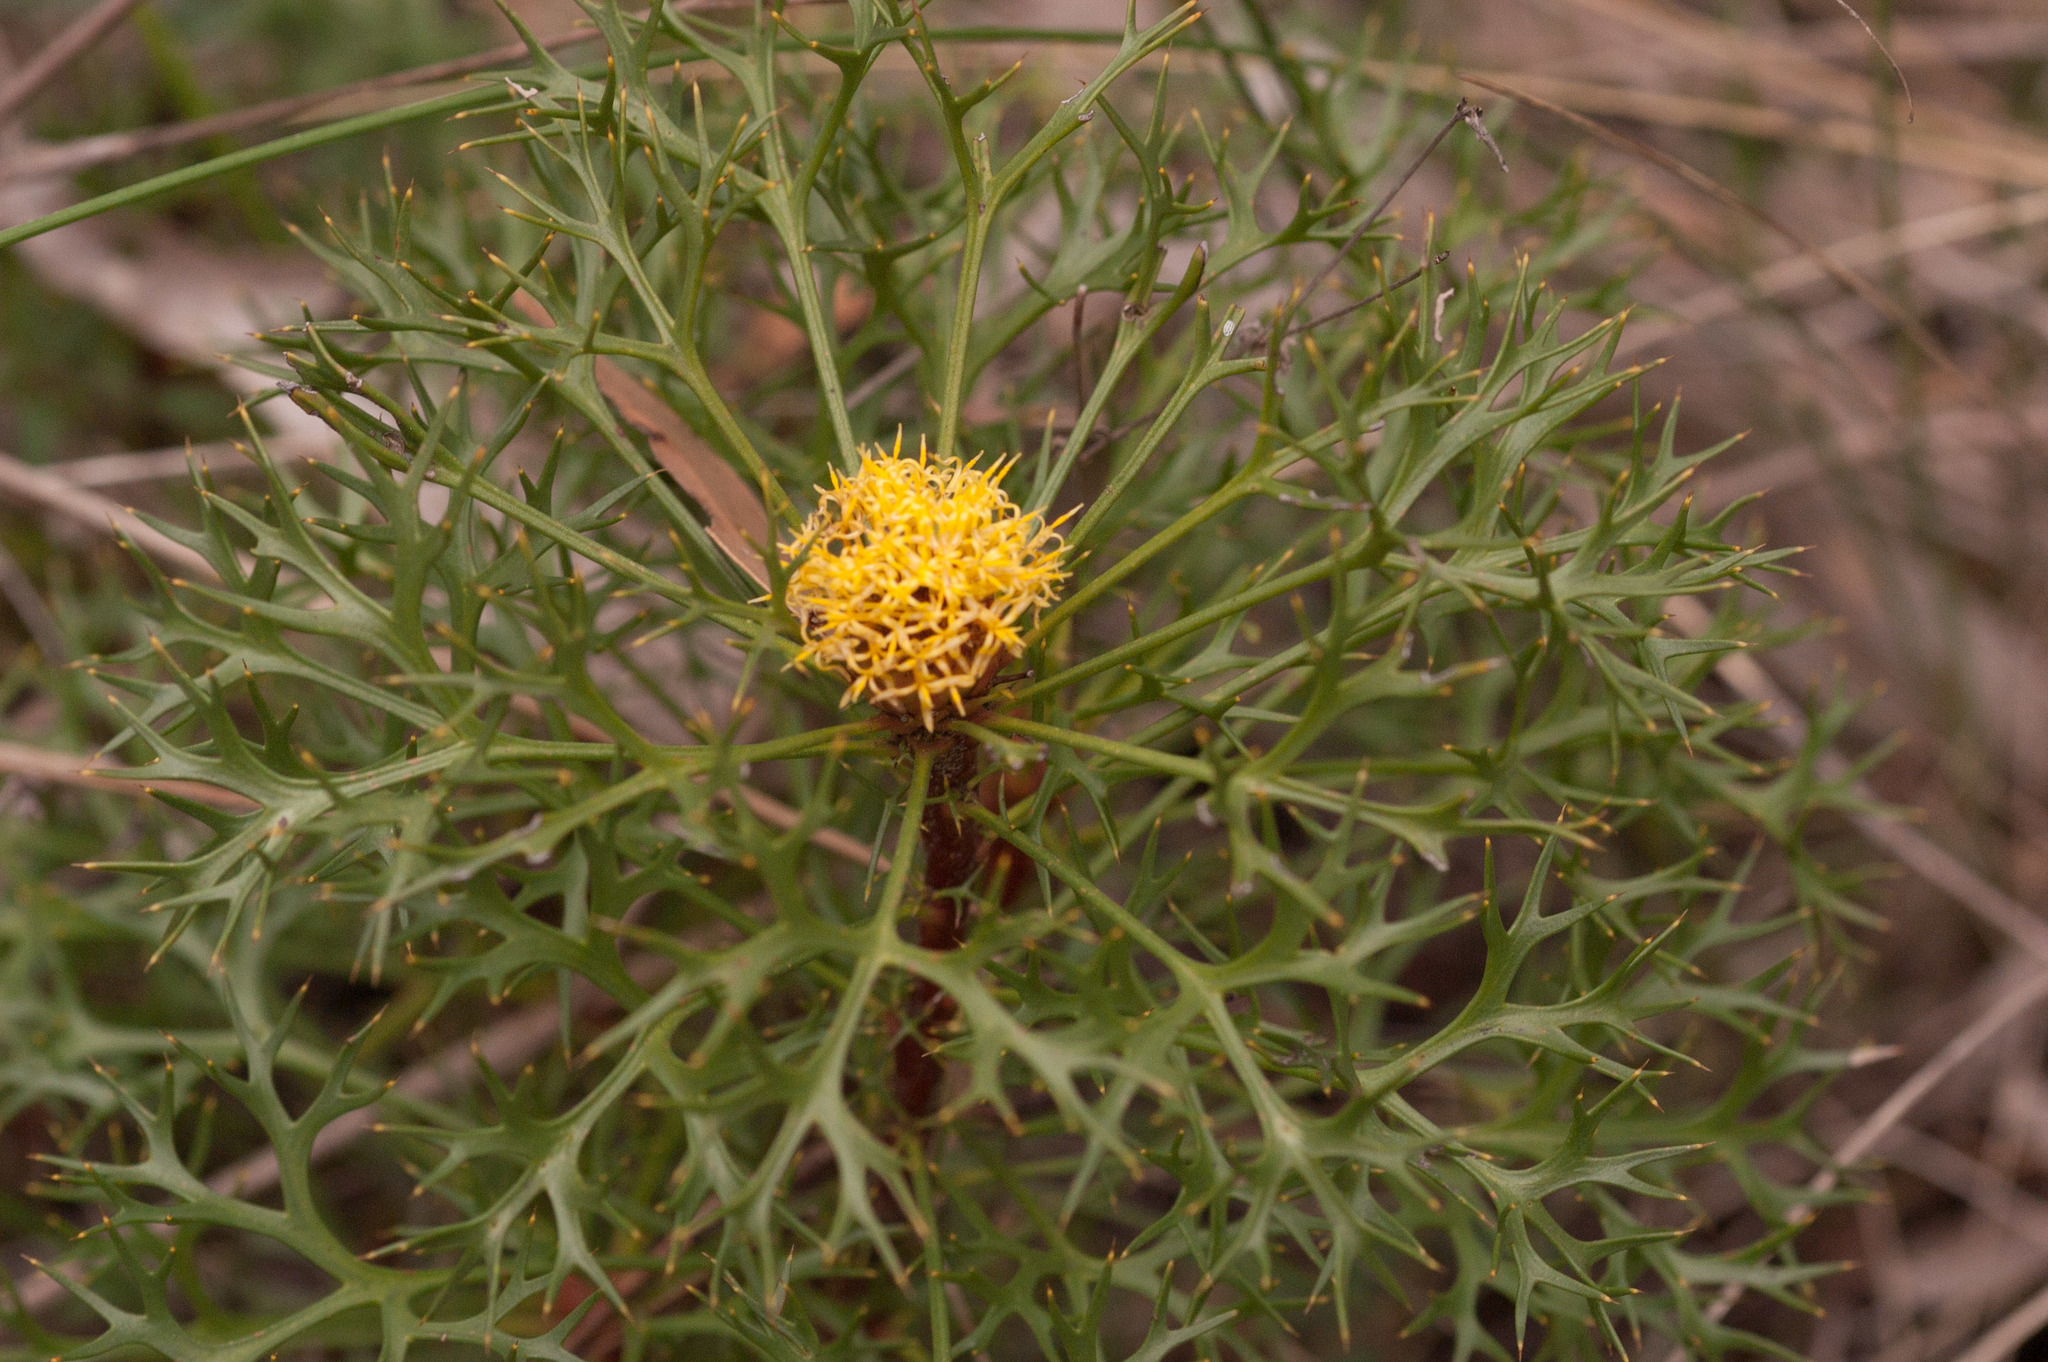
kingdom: Plantae
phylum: Tracheophyta
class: Magnoliopsida
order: Proteales
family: Proteaceae
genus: Isopogon
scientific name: Isopogon ceratophyllus
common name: Horny cone-bush
